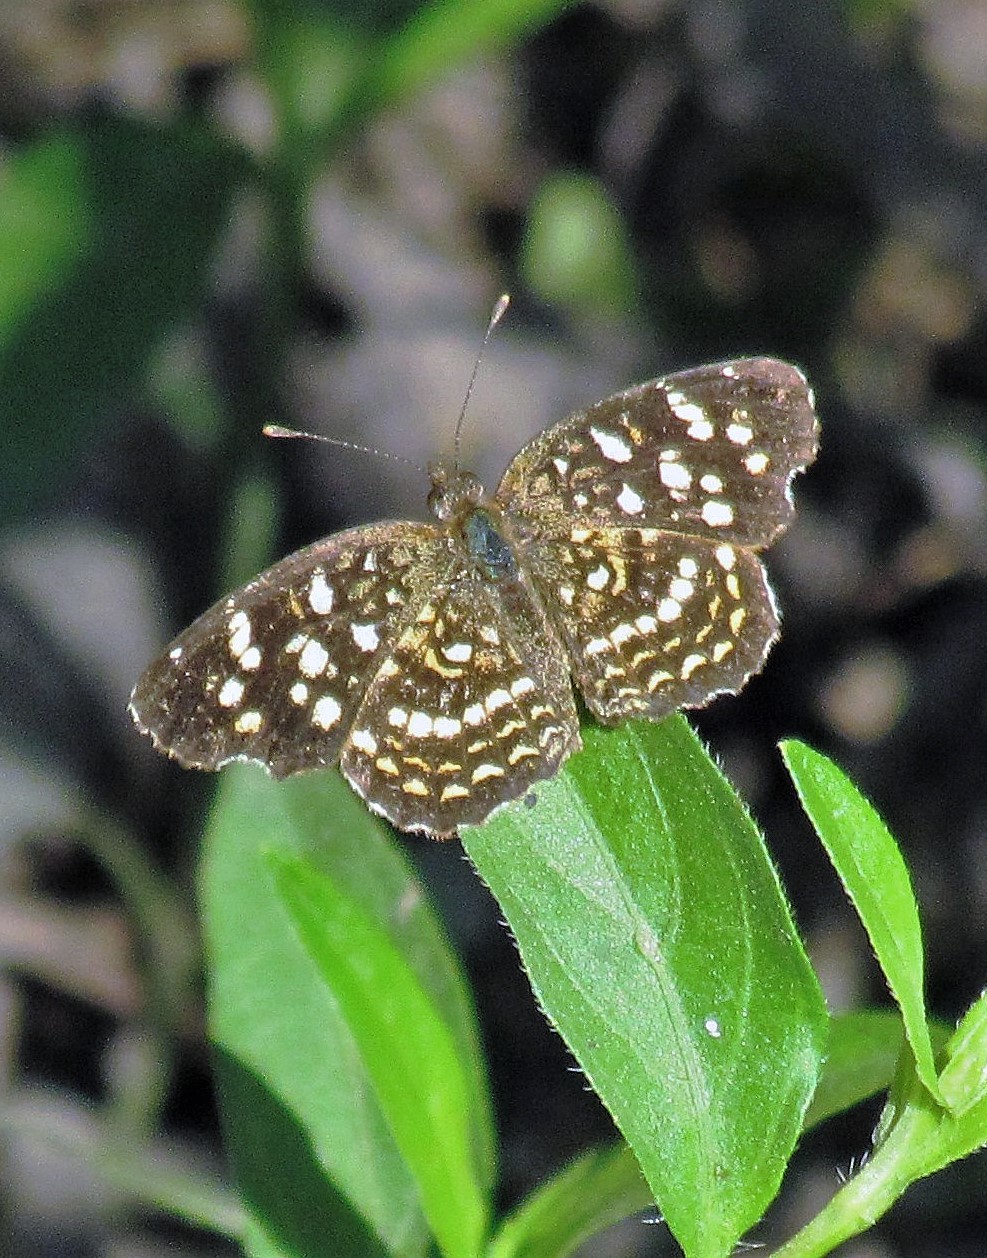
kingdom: Animalia
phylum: Arthropoda
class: Insecta
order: Lepidoptera
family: Nymphalidae
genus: Anthanassa
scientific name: Anthanassa hermas
